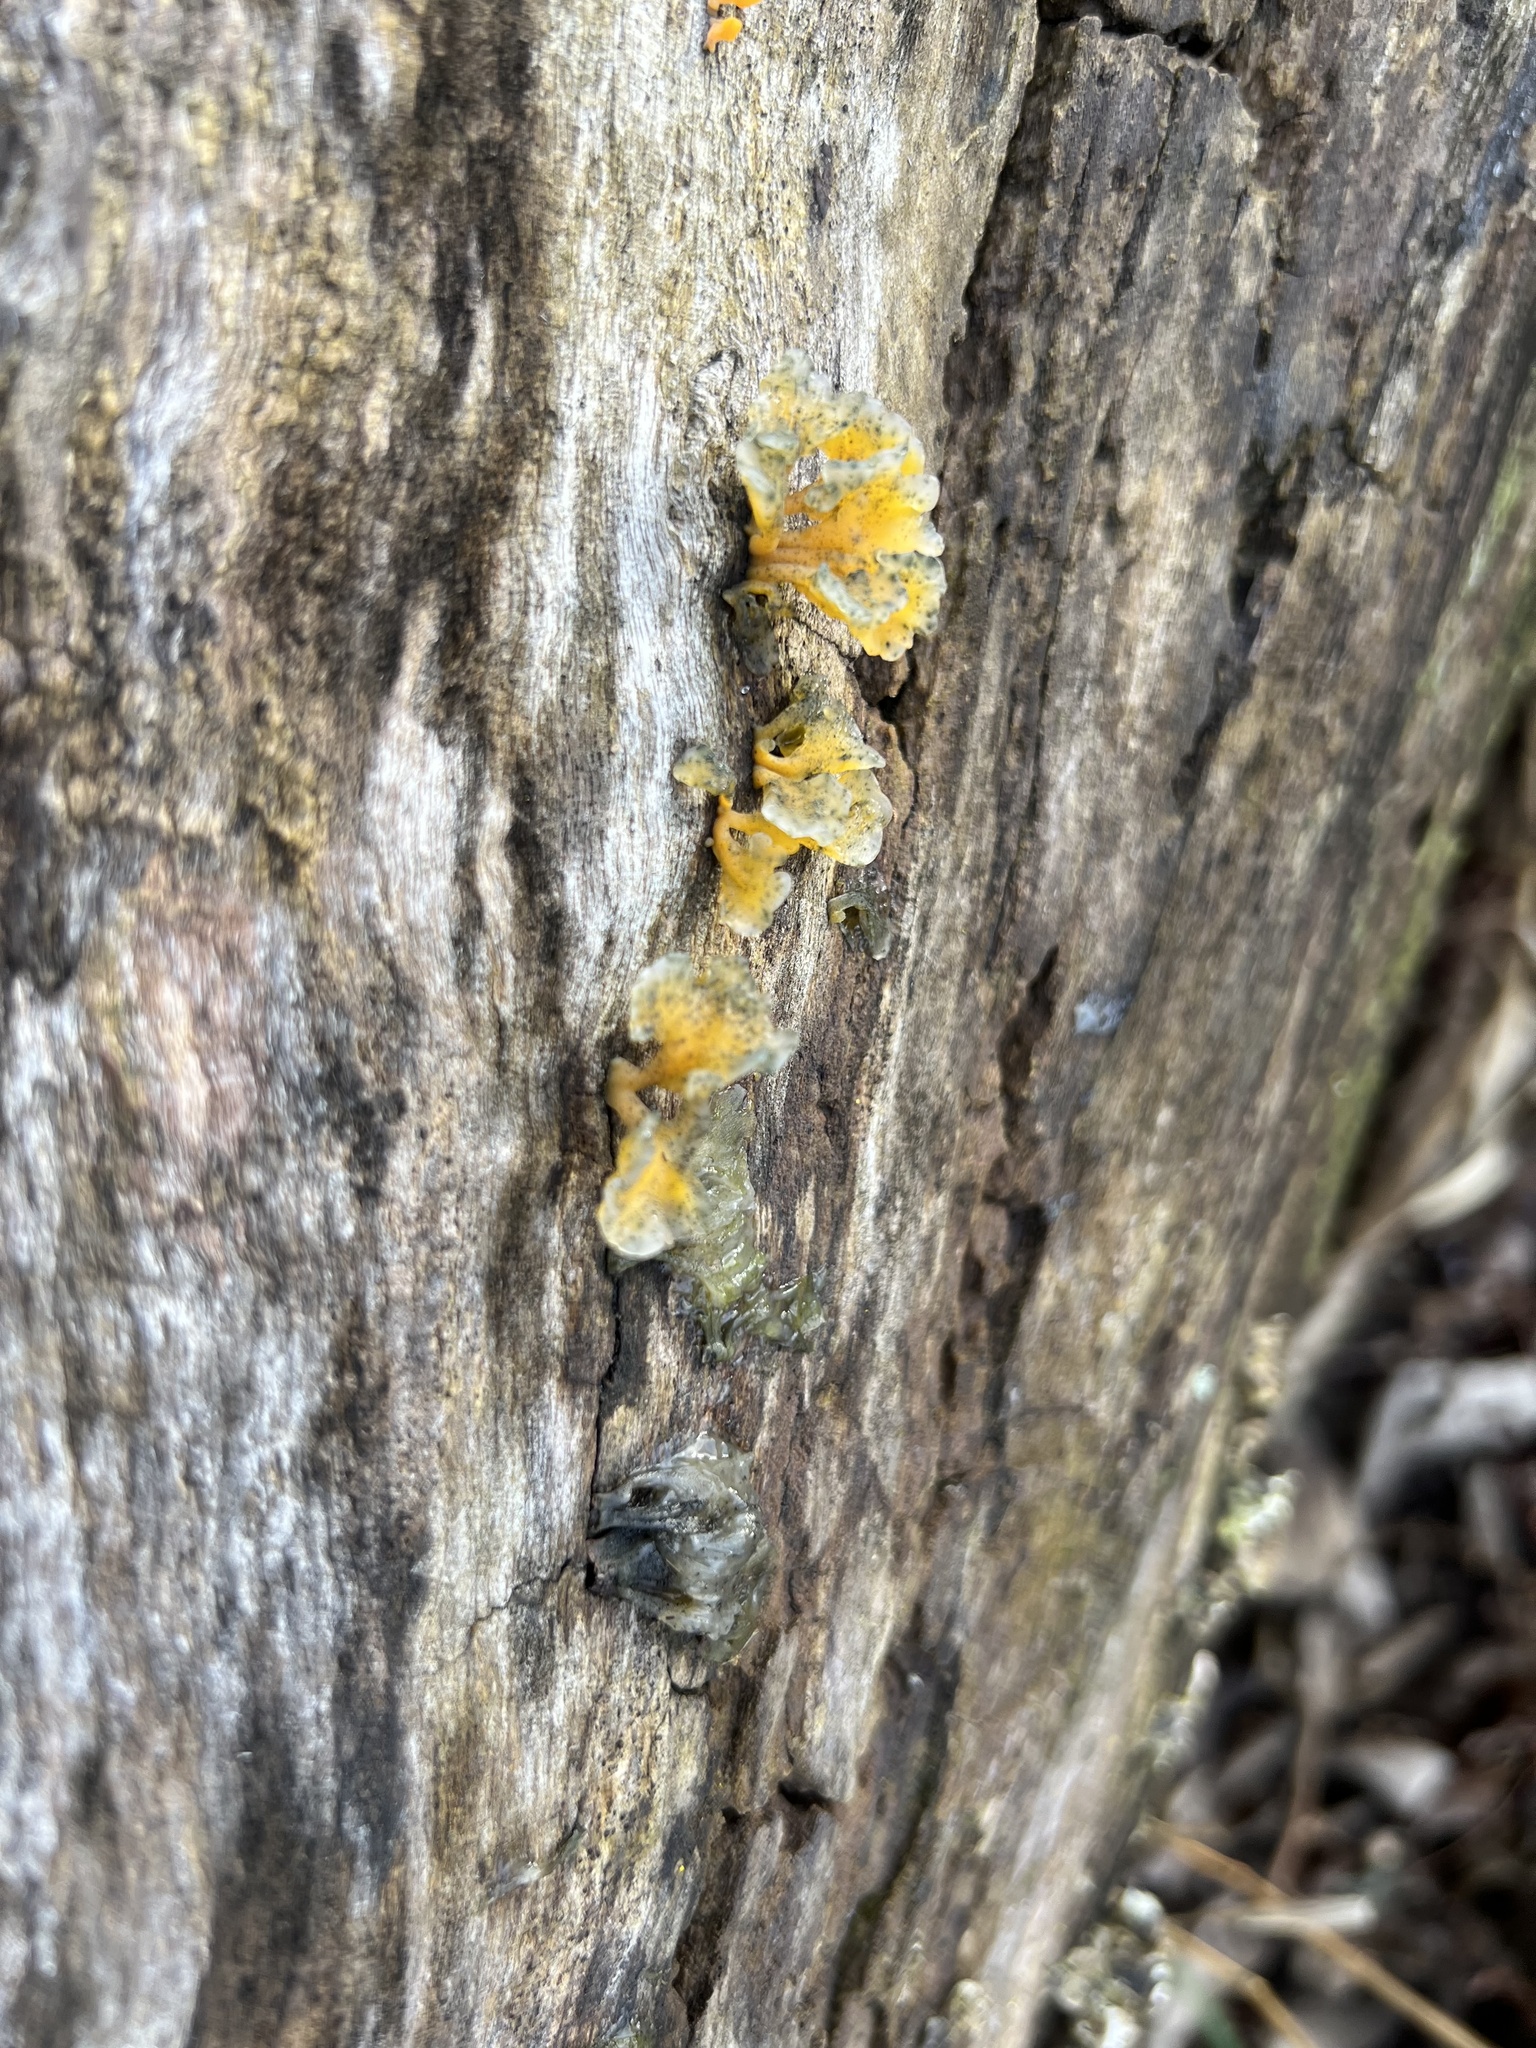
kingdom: Fungi
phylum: Basidiomycota
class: Dacrymycetes
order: Dacrymycetales
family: Dacrymycetaceae
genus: Dacrymyces
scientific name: Dacrymyces spathularius
